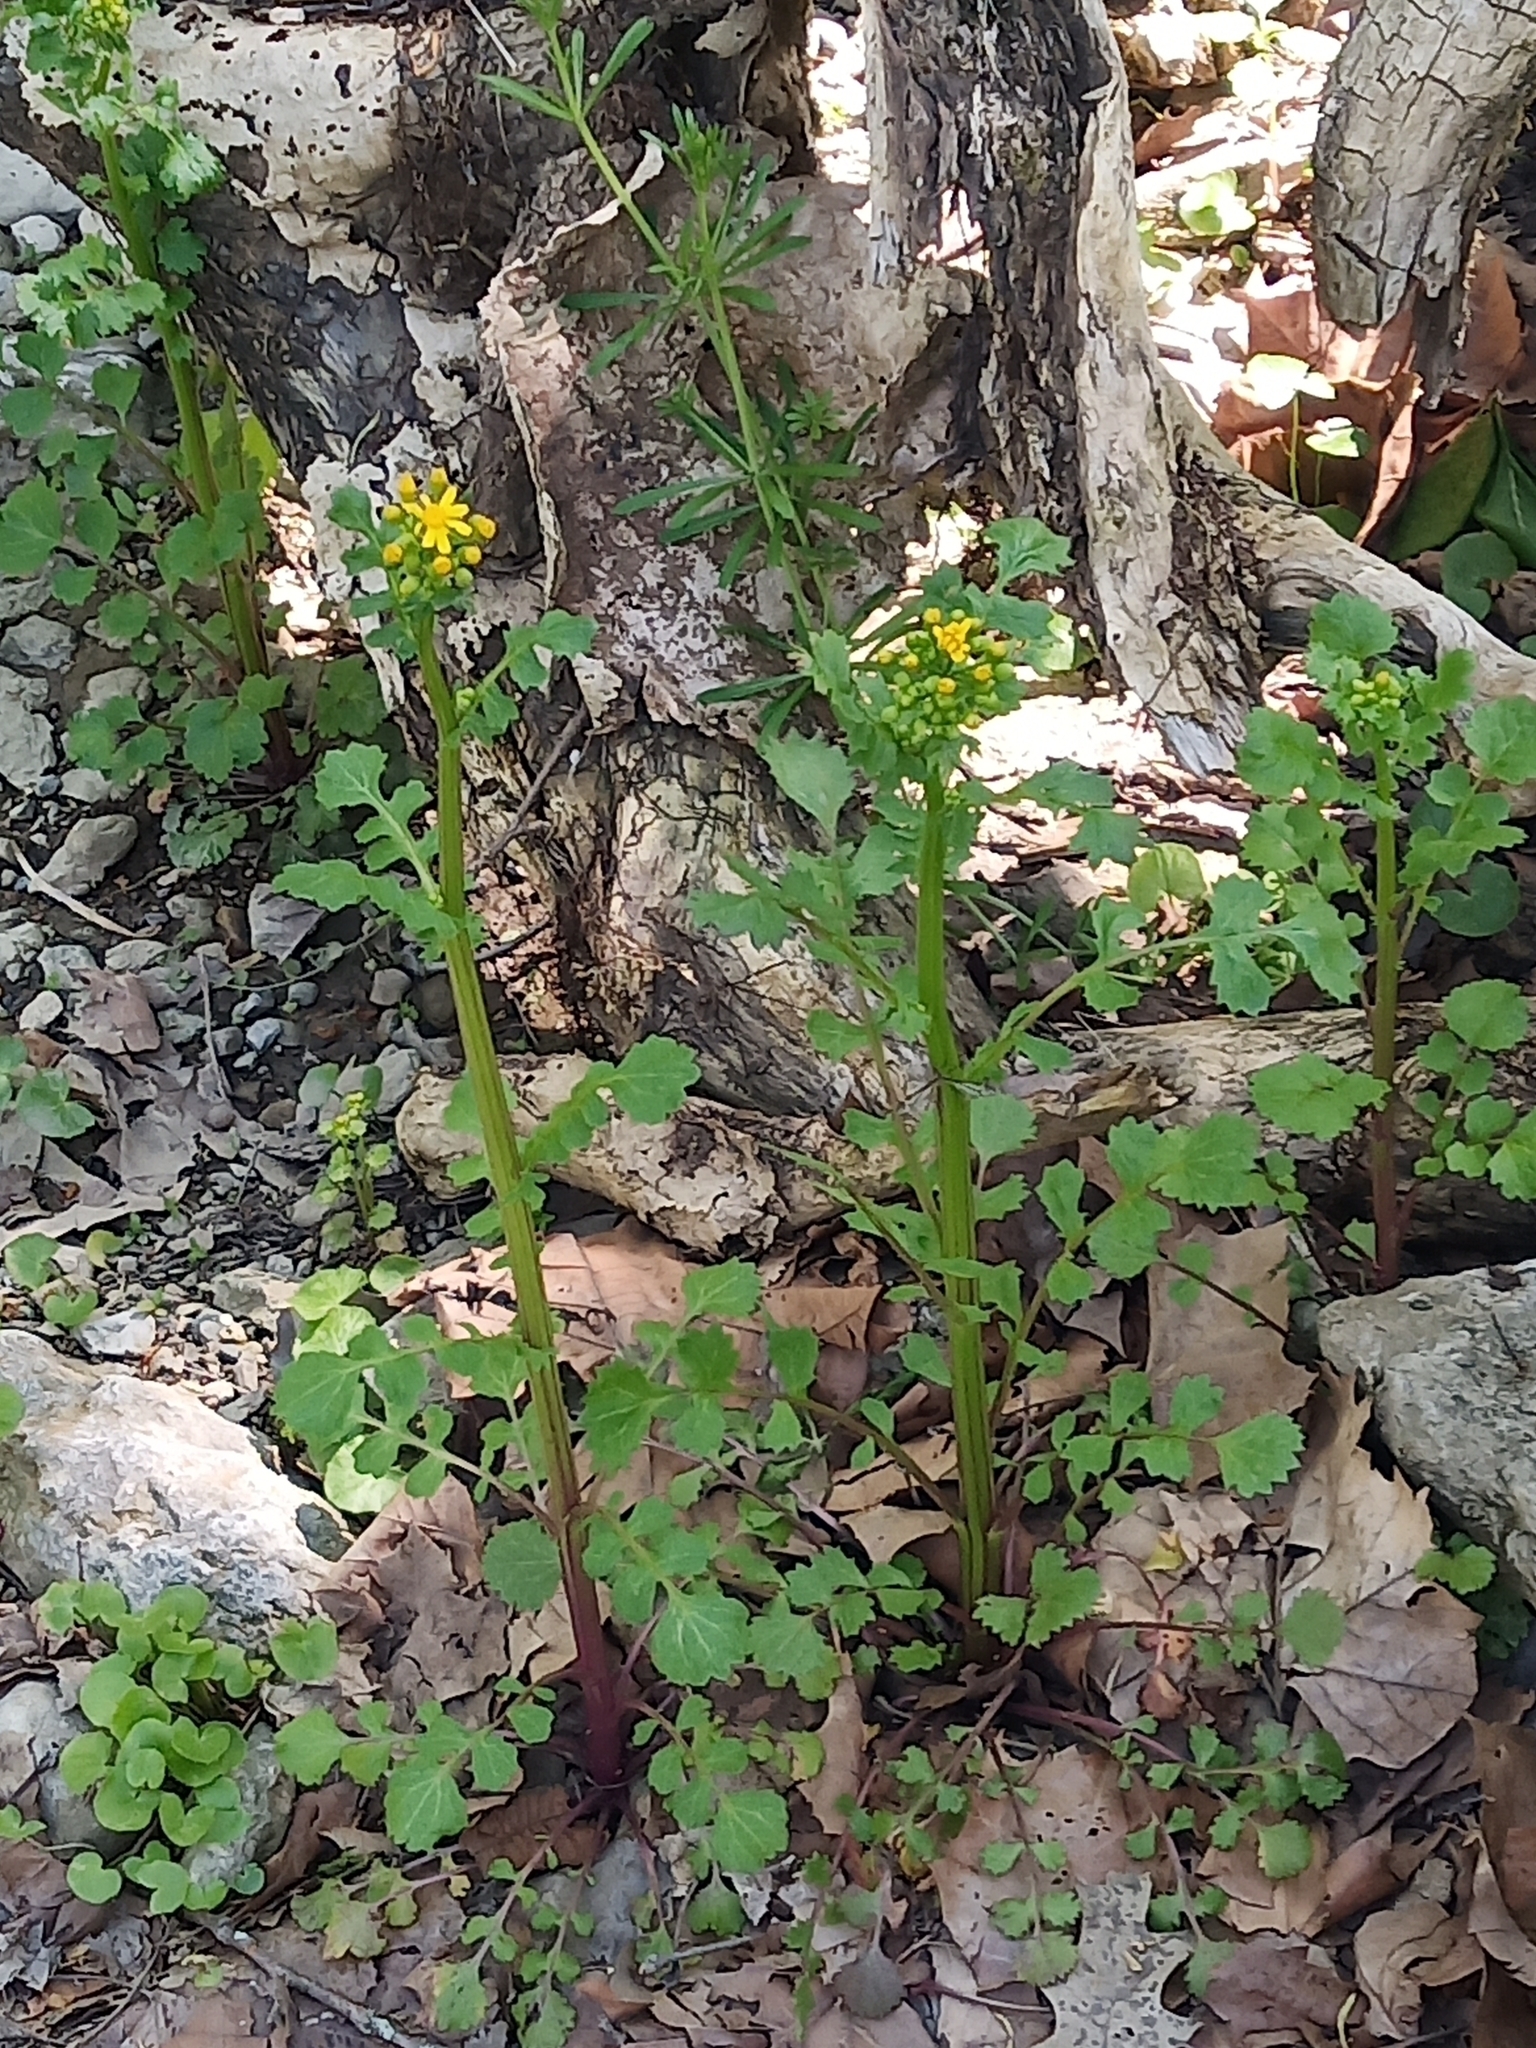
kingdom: Plantae
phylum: Tracheophyta
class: Magnoliopsida
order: Asterales
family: Asteraceae
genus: Packera
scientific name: Packera glabella
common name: Butterweed
